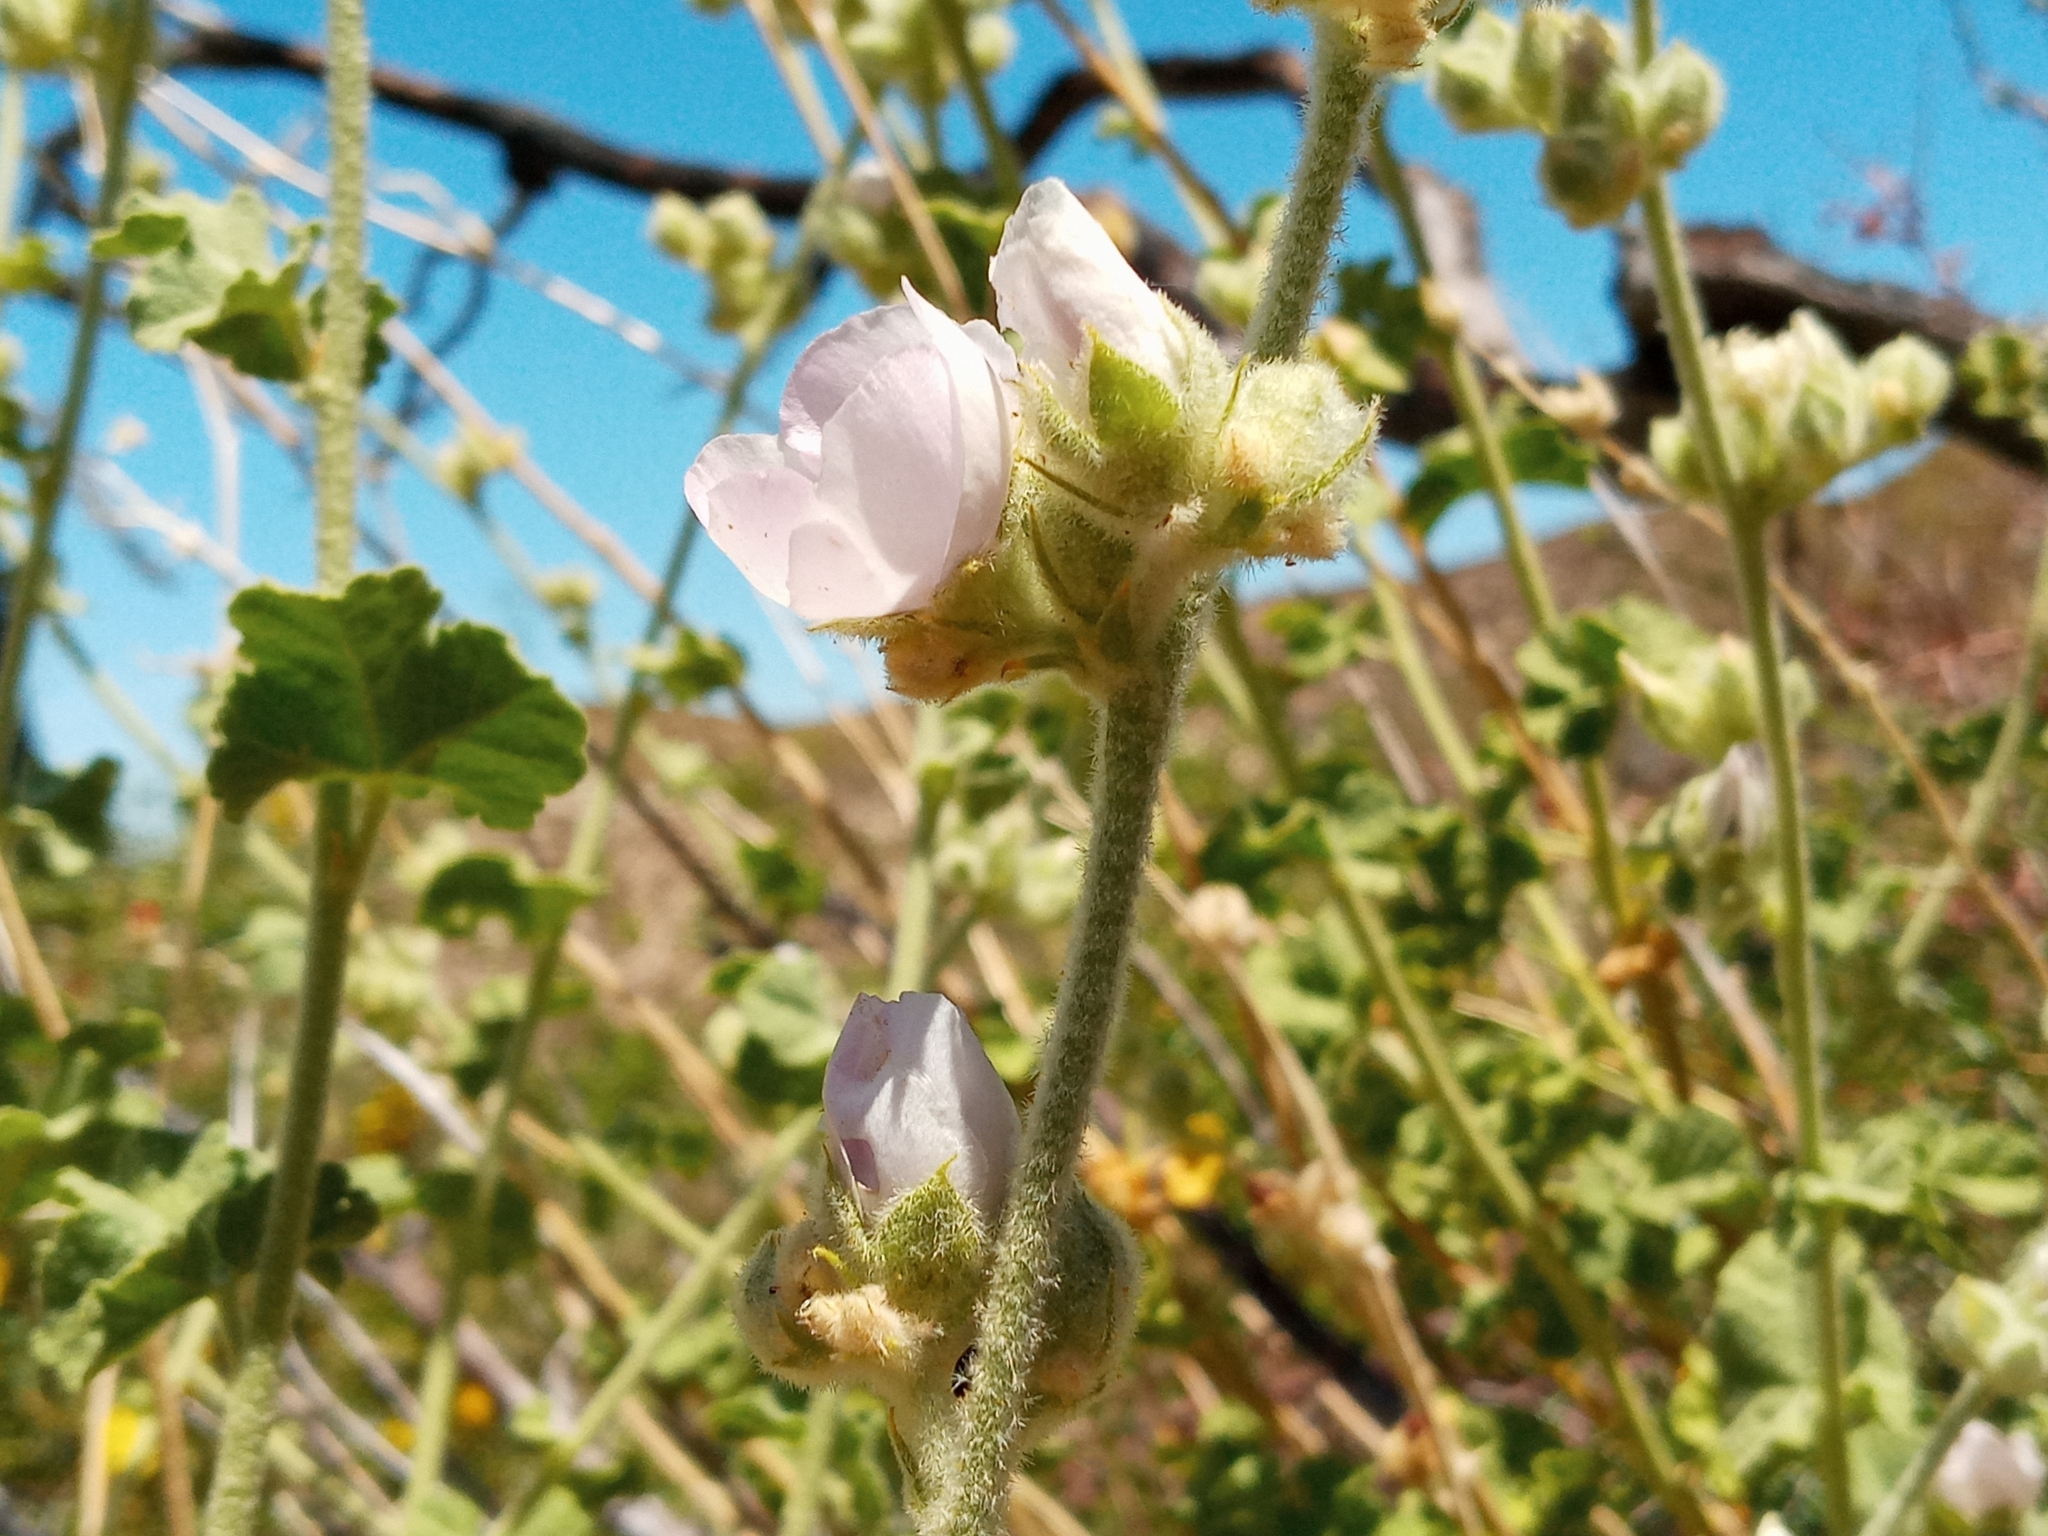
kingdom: Plantae
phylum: Tracheophyta
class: Magnoliopsida
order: Malvales
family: Malvaceae
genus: Malacothamnus
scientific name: Malacothamnus fremontii
